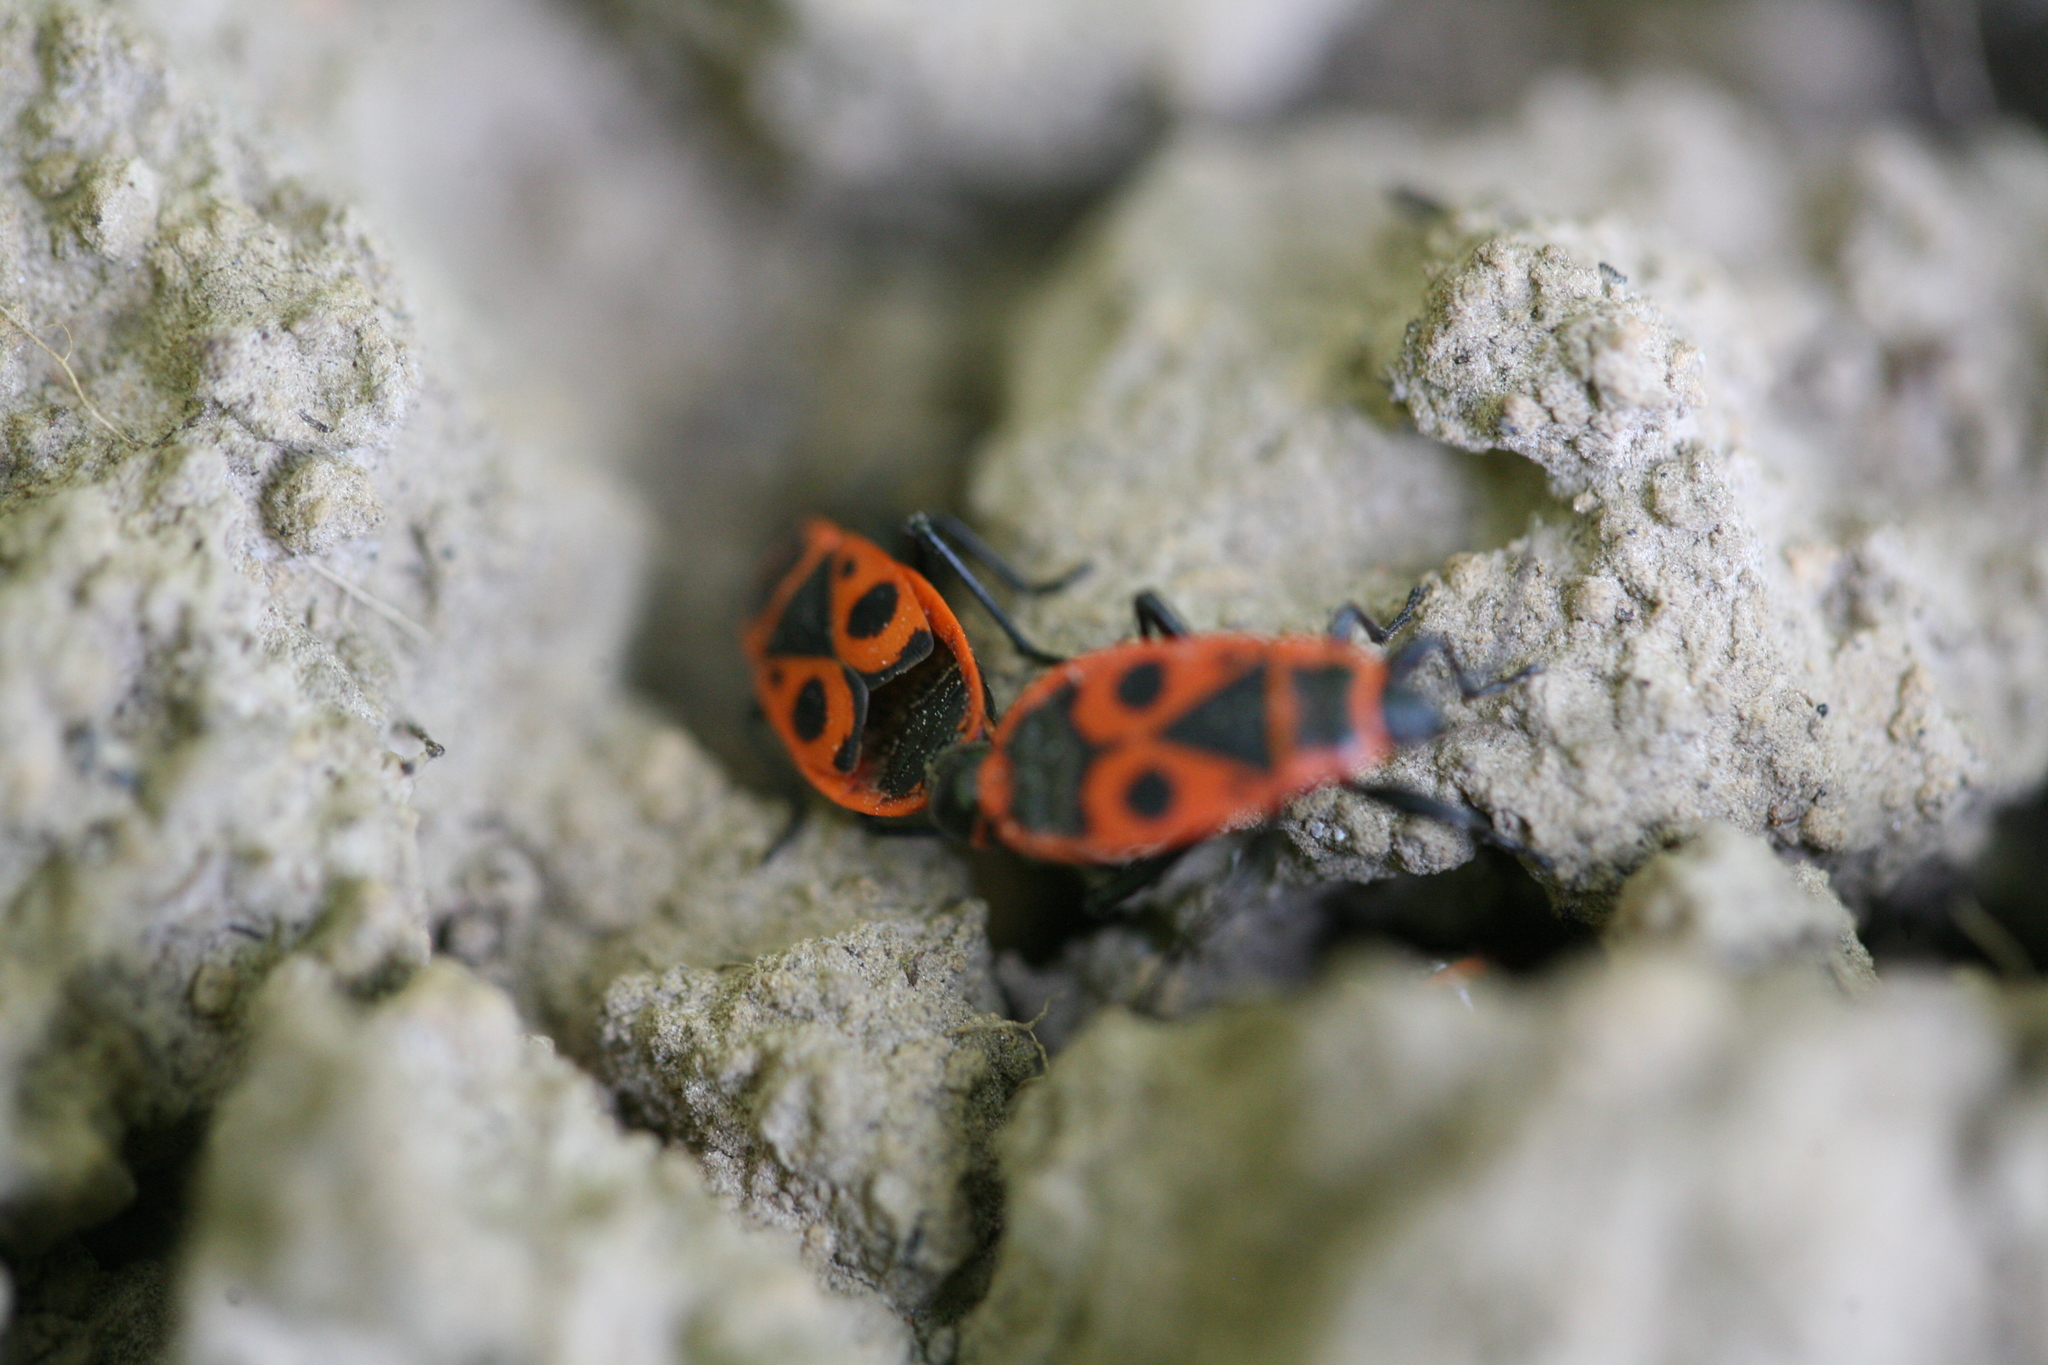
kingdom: Animalia
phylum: Arthropoda
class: Insecta
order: Hemiptera
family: Pyrrhocoridae
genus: Pyrrhocoris
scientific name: Pyrrhocoris apterus
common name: Firebug
